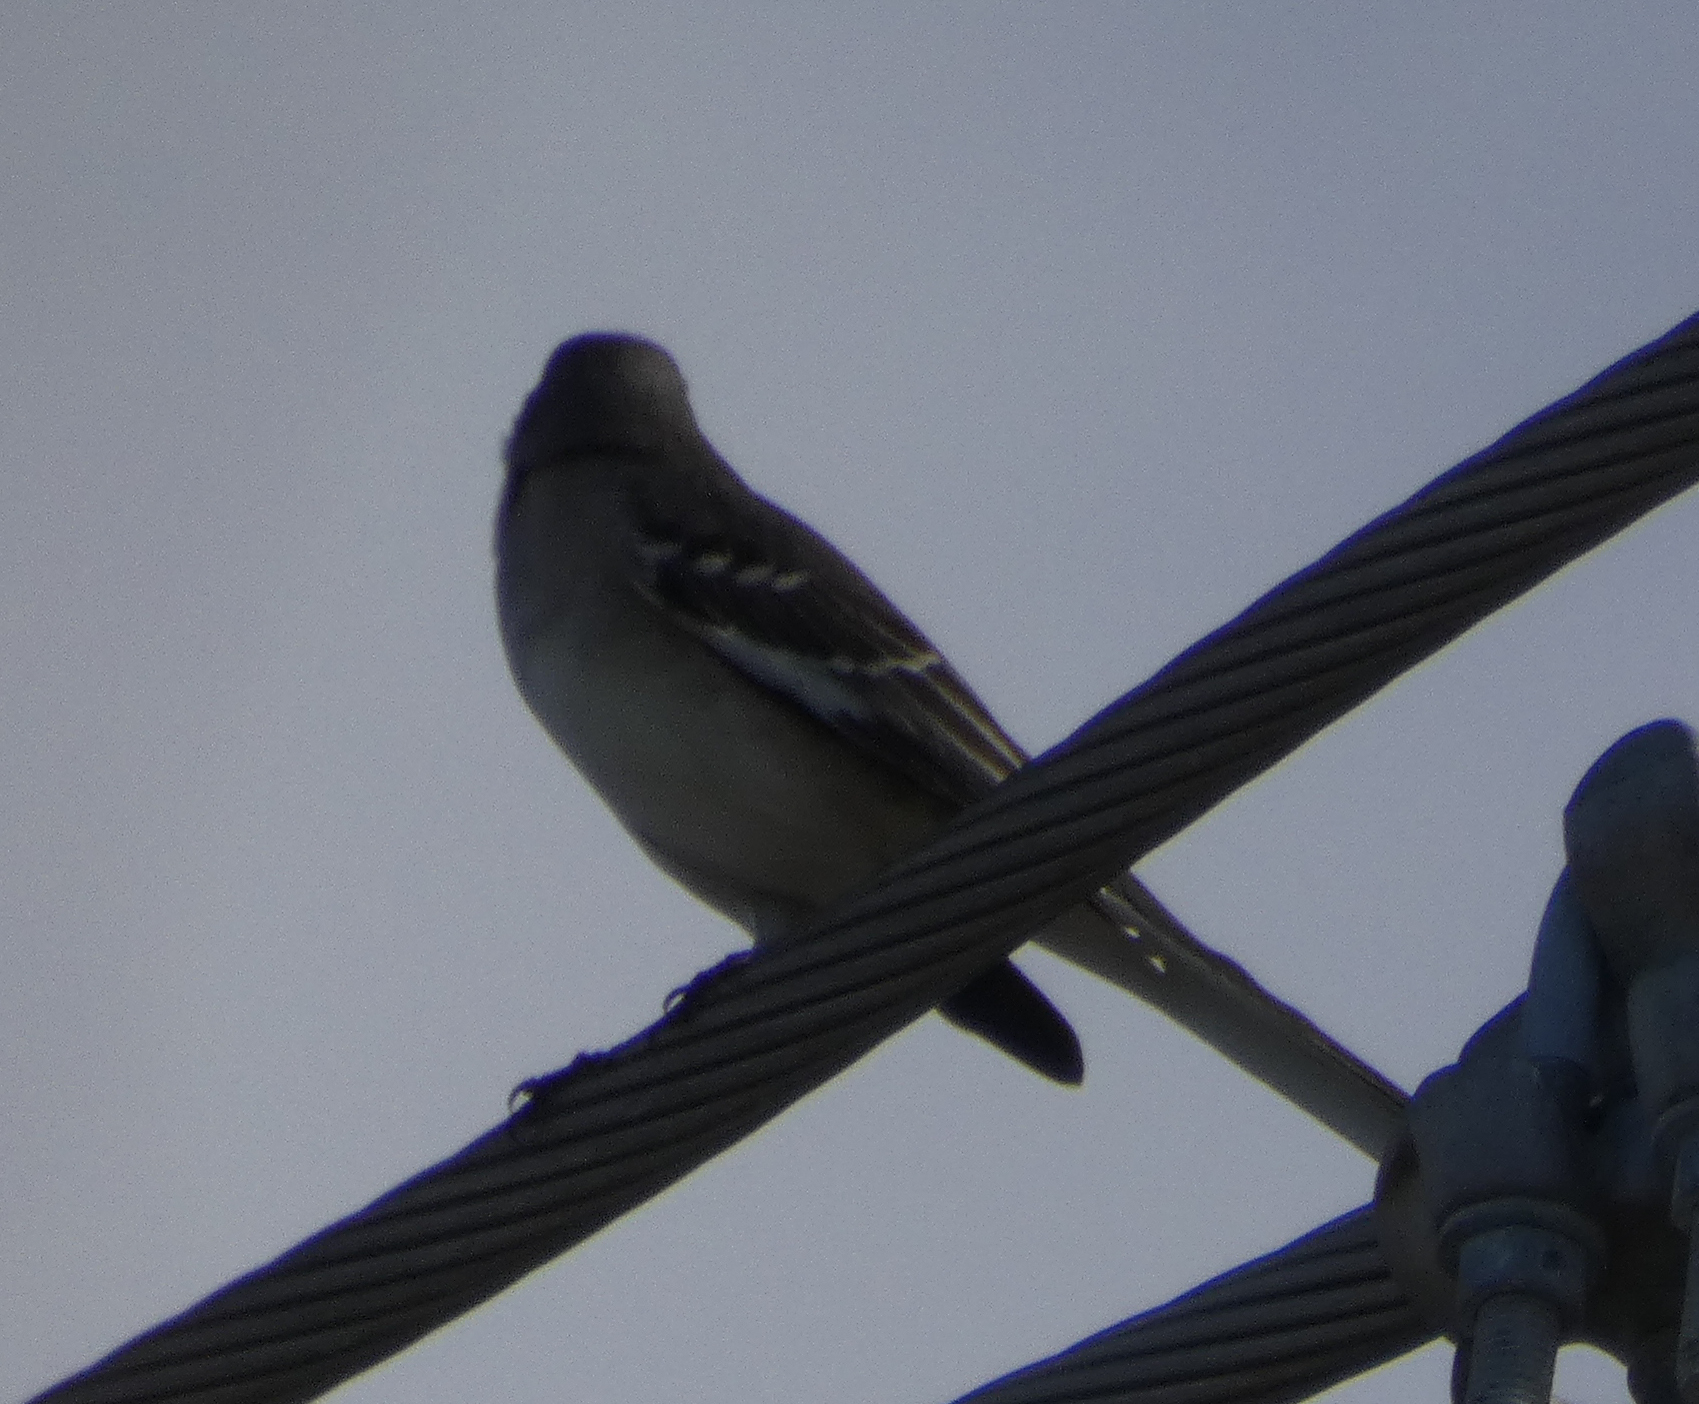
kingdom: Animalia
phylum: Chordata
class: Aves
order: Passeriformes
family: Mimidae
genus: Mimus
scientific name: Mimus polyglottos
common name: Northern mockingbird
